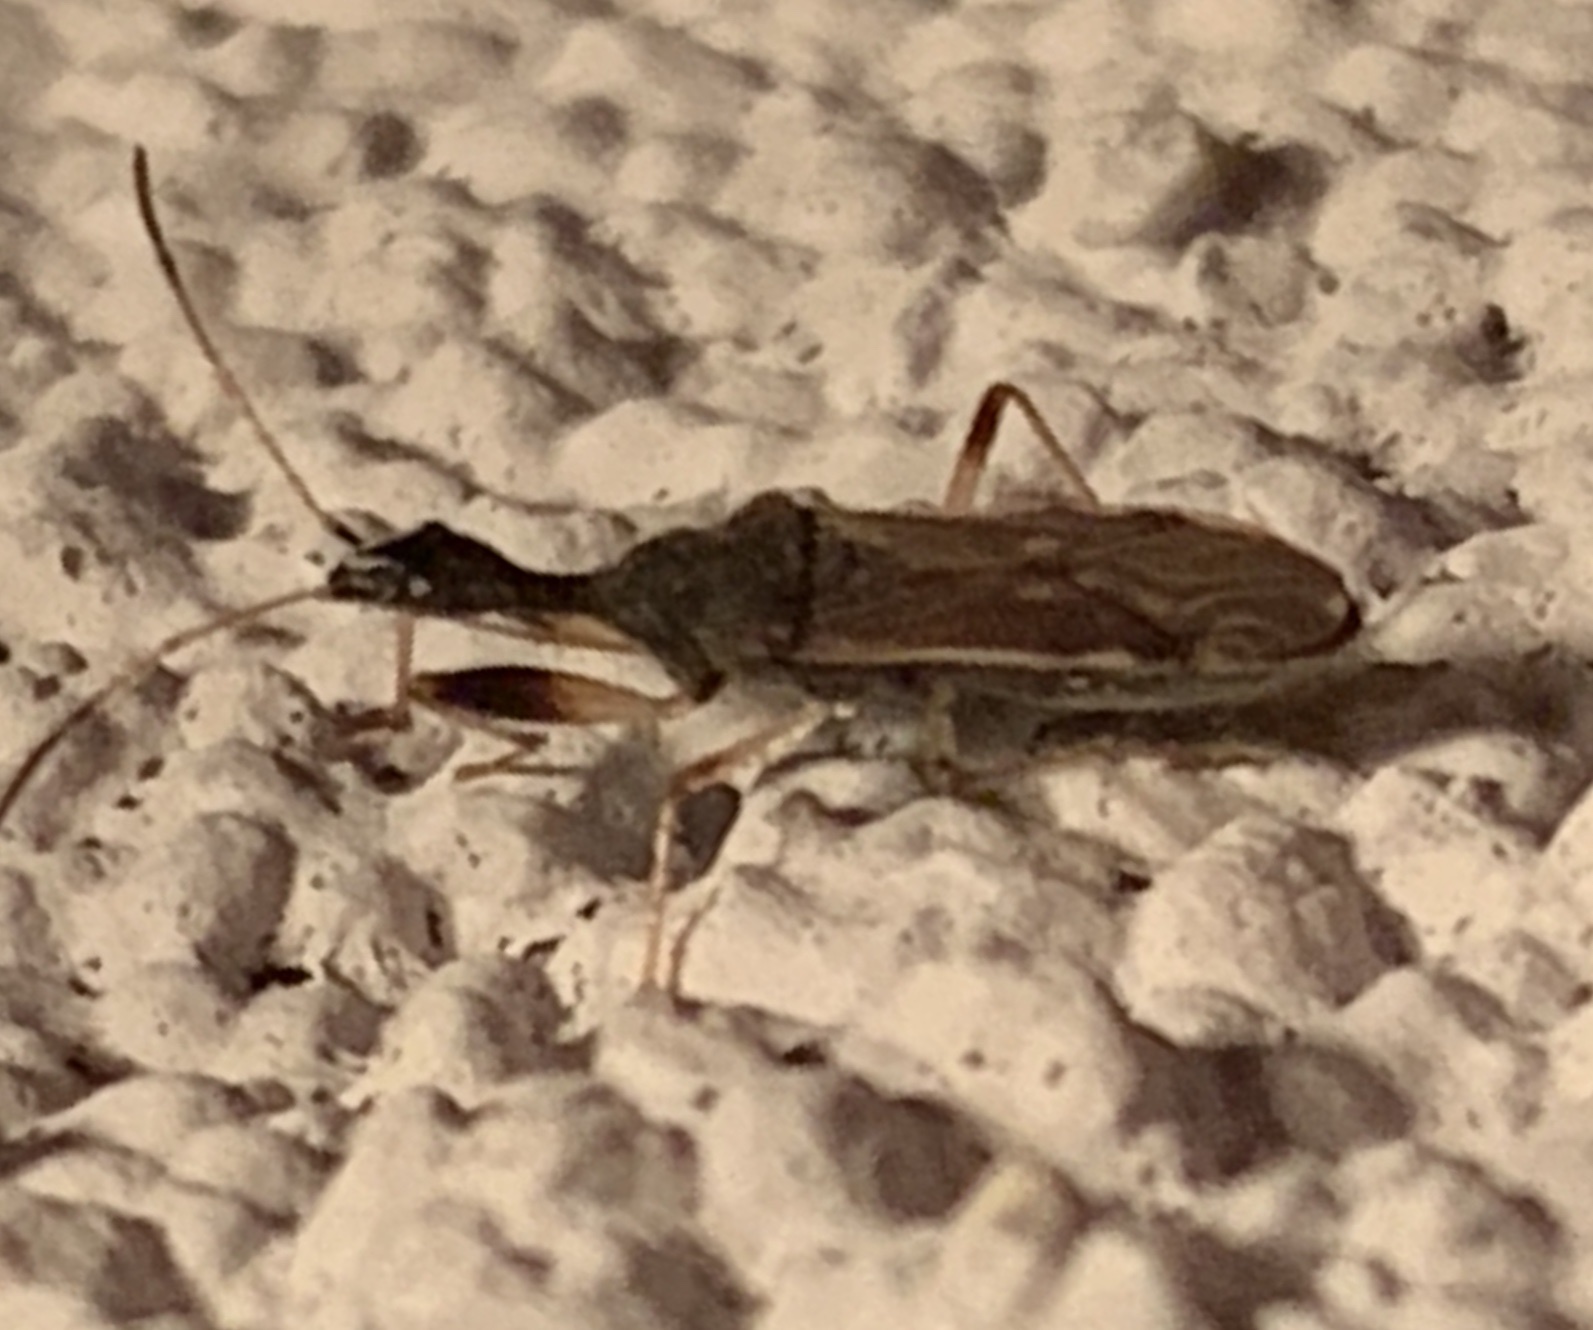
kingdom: Animalia
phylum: Arthropoda
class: Insecta
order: Hemiptera
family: Rhyparochromidae
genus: Myodocha
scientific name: Myodocha serripes
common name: Long-necked seed bug
